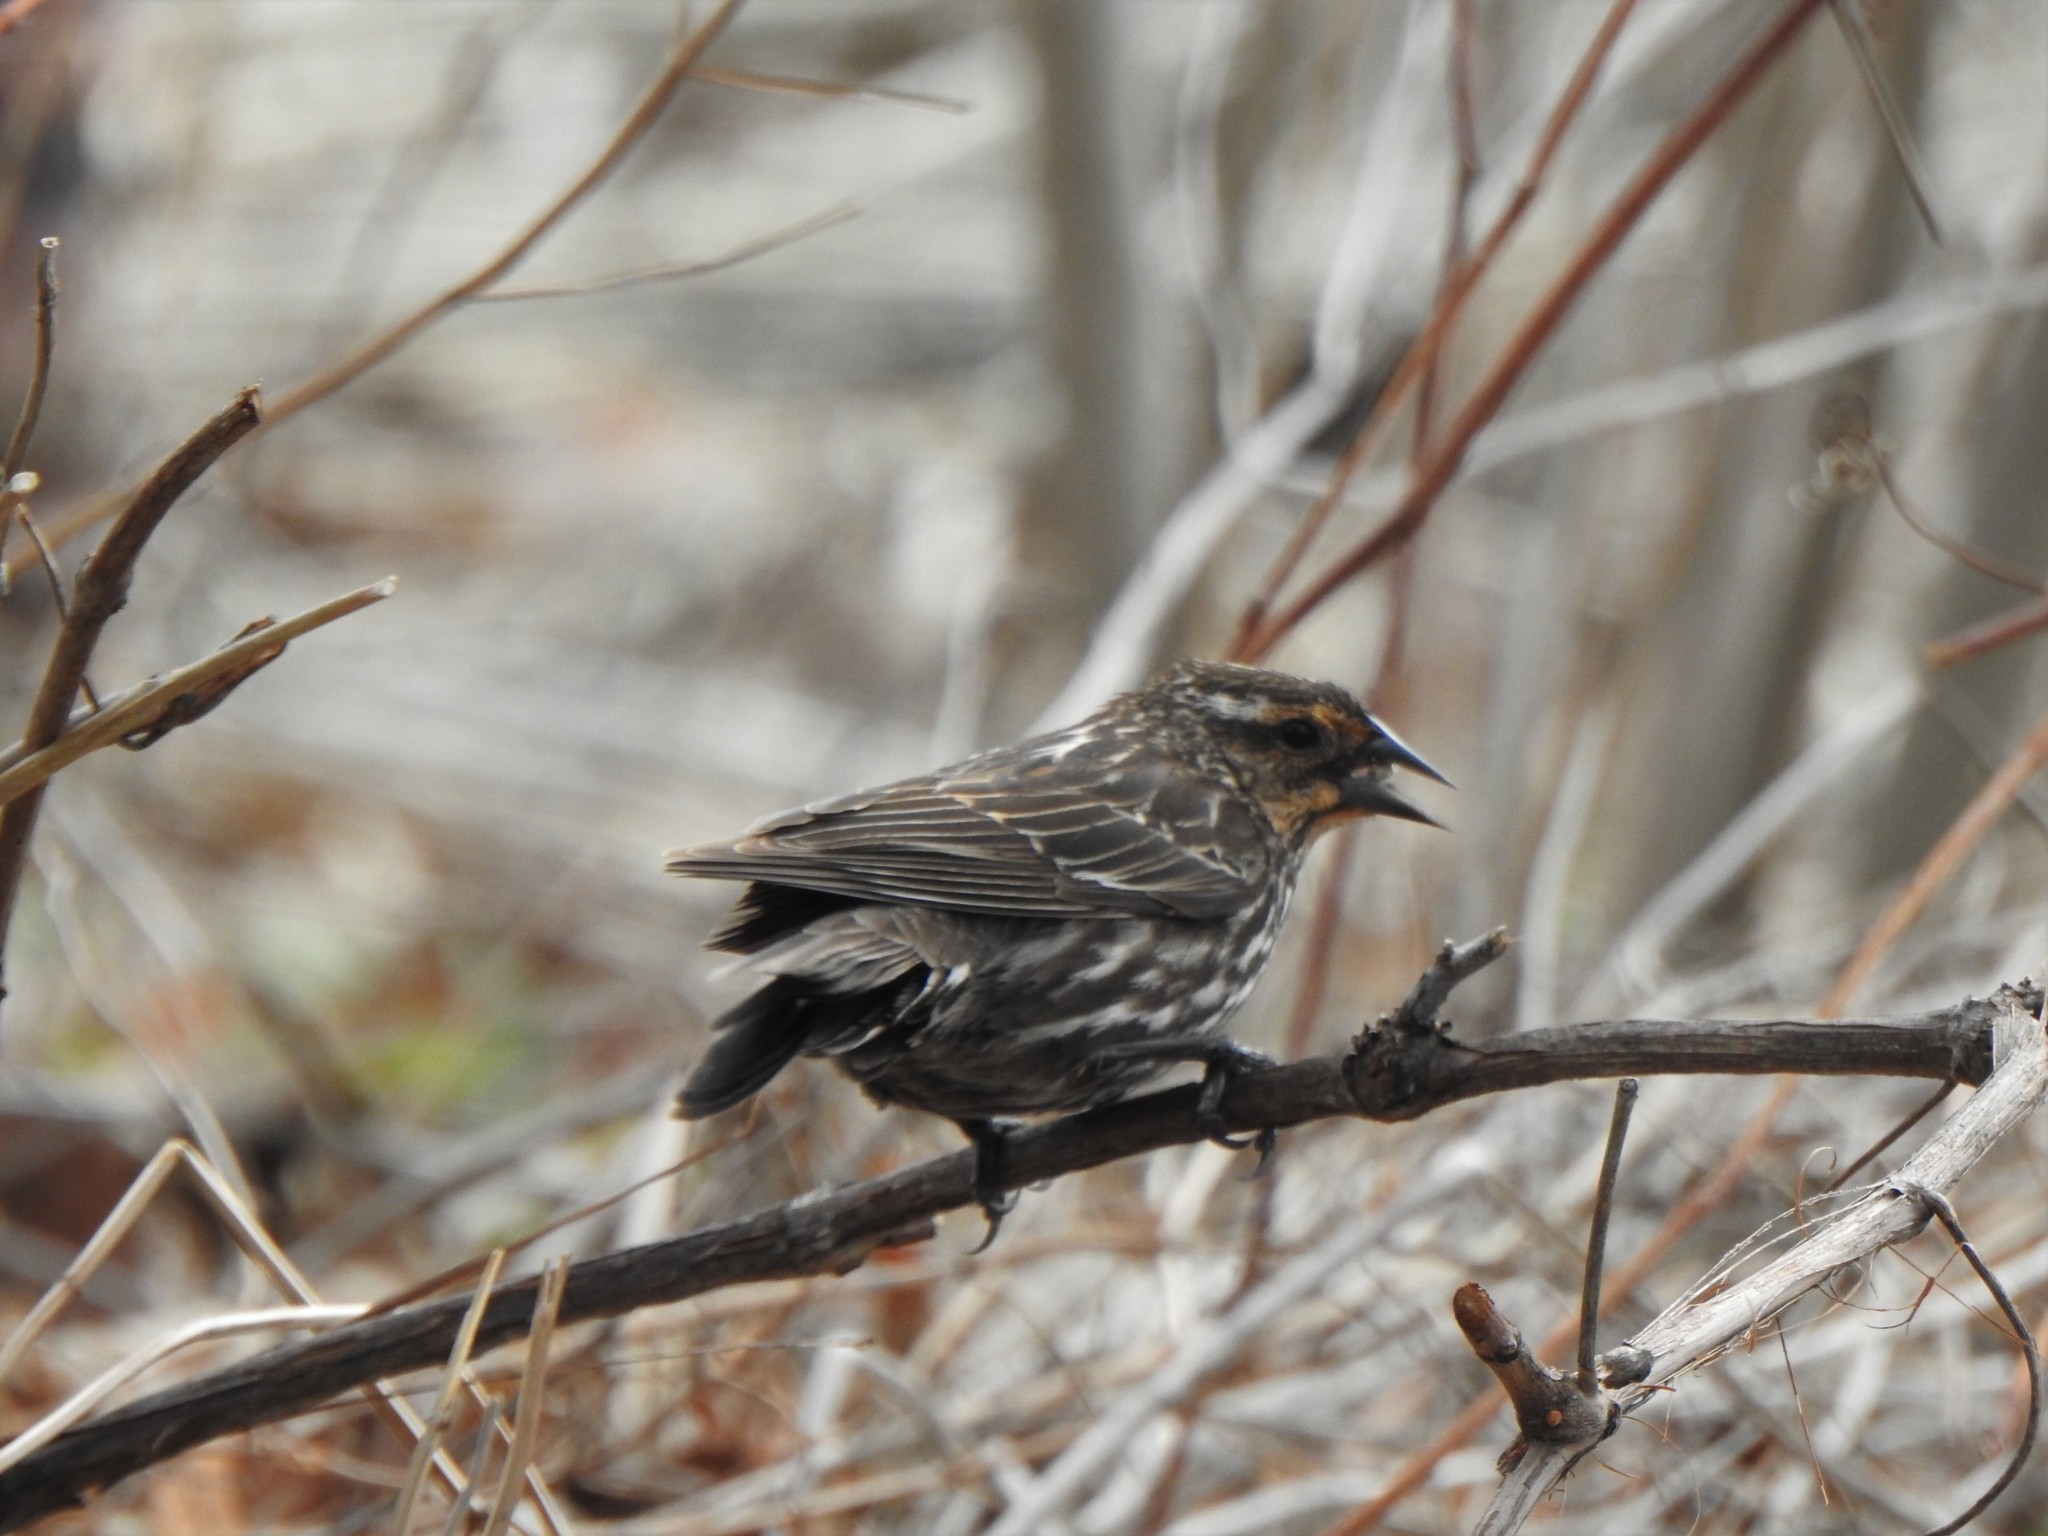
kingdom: Animalia
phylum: Chordata
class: Aves
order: Passeriformes
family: Icteridae
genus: Agelaius
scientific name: Agelaius phoeniceus
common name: Red-winged blackbird
